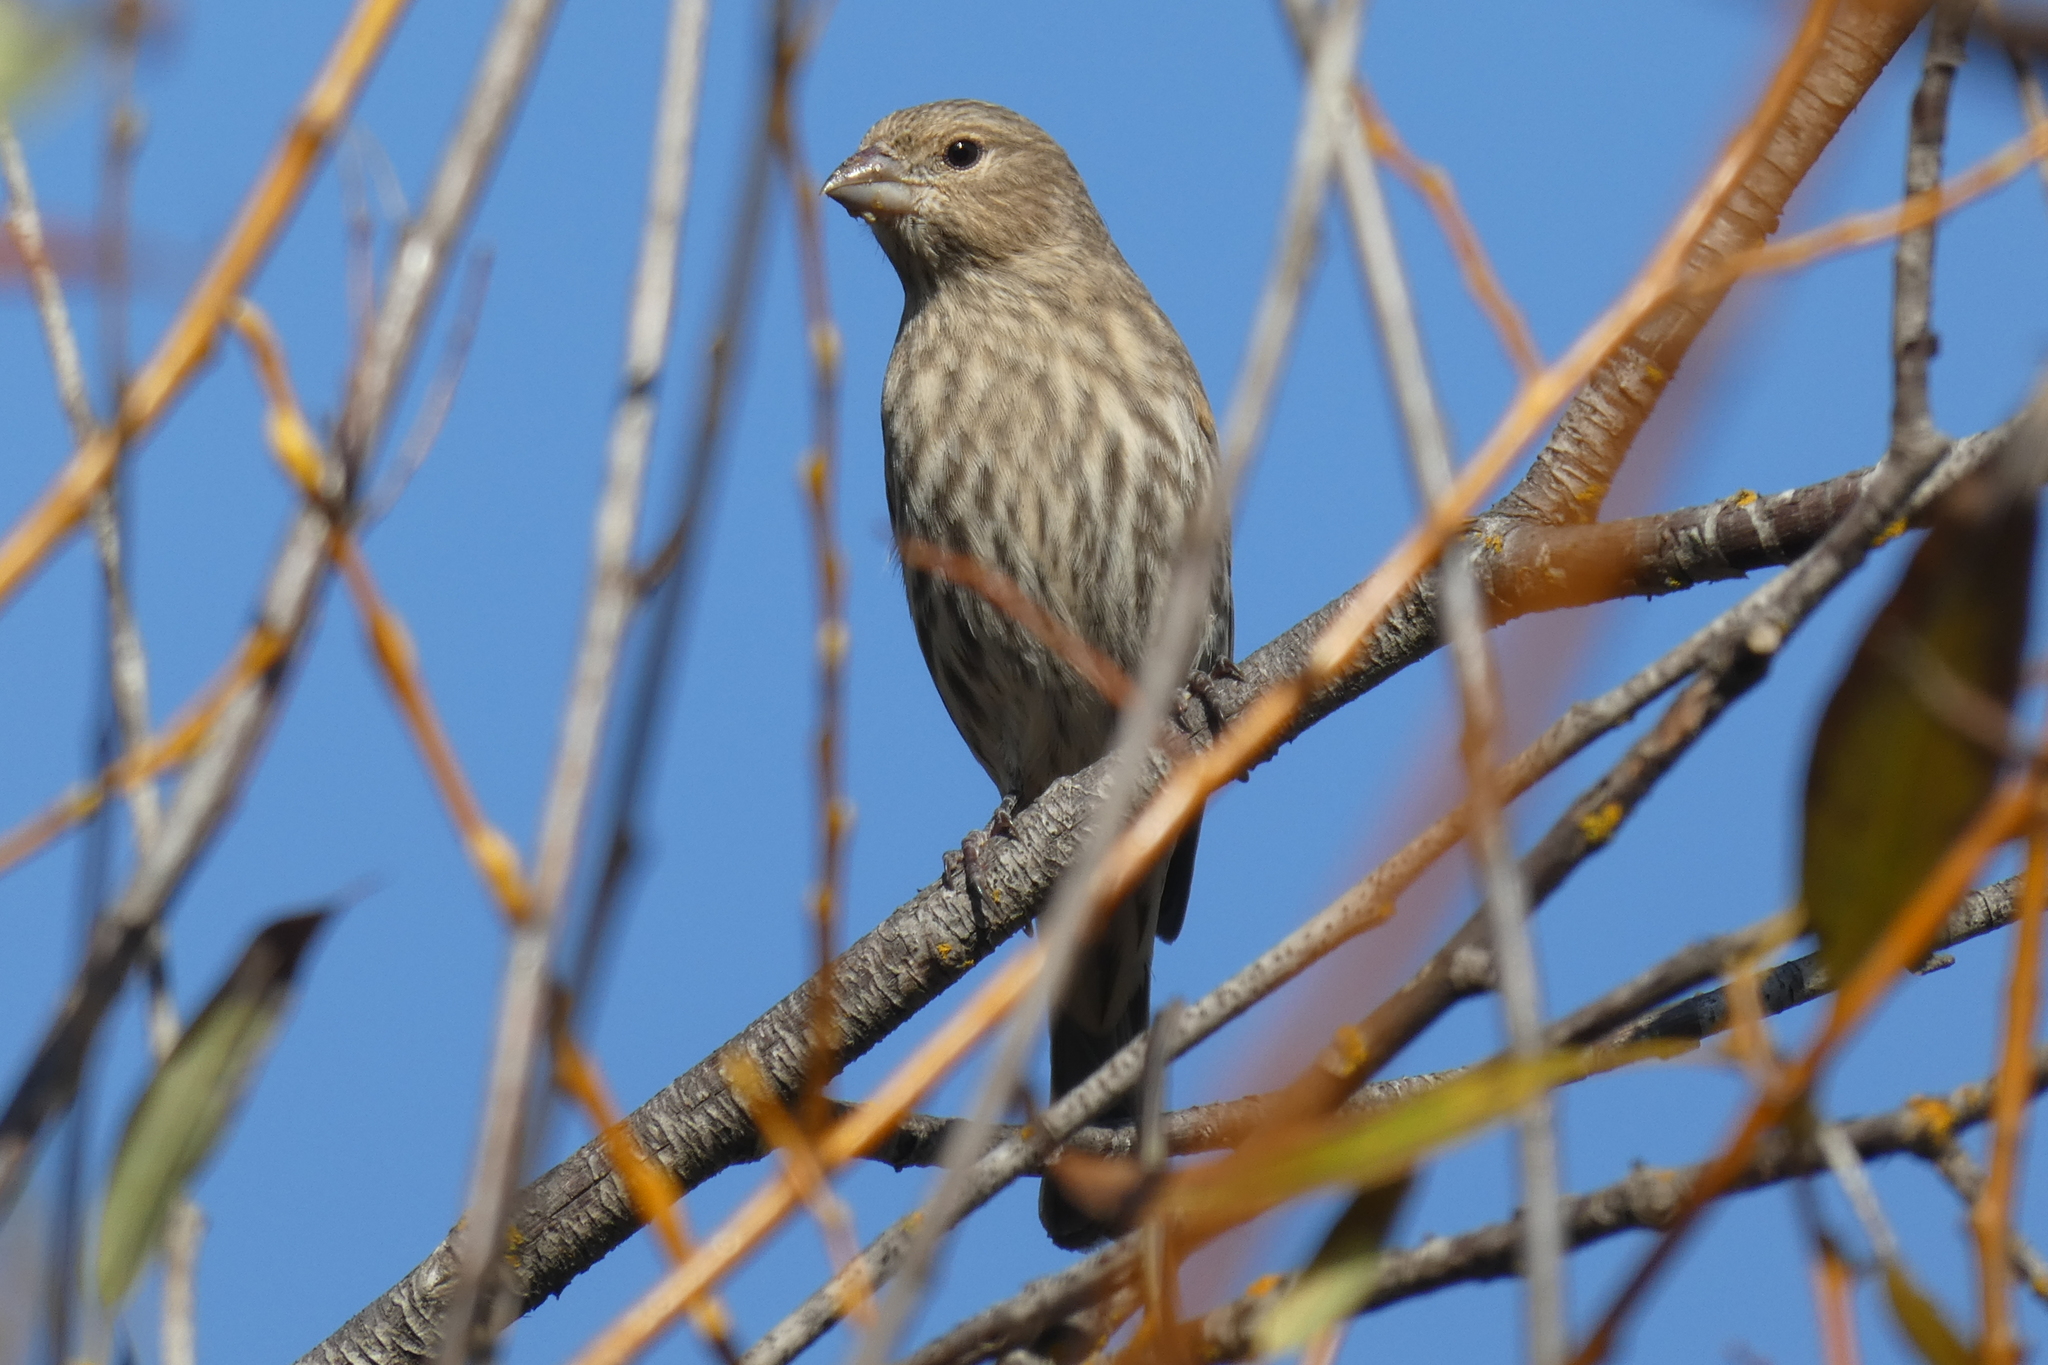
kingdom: Animalia
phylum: Chordata
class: Aves
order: Passeriformes
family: Fringillidae
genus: Haemorhous
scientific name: Haemorhous mexicanus
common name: House finch
